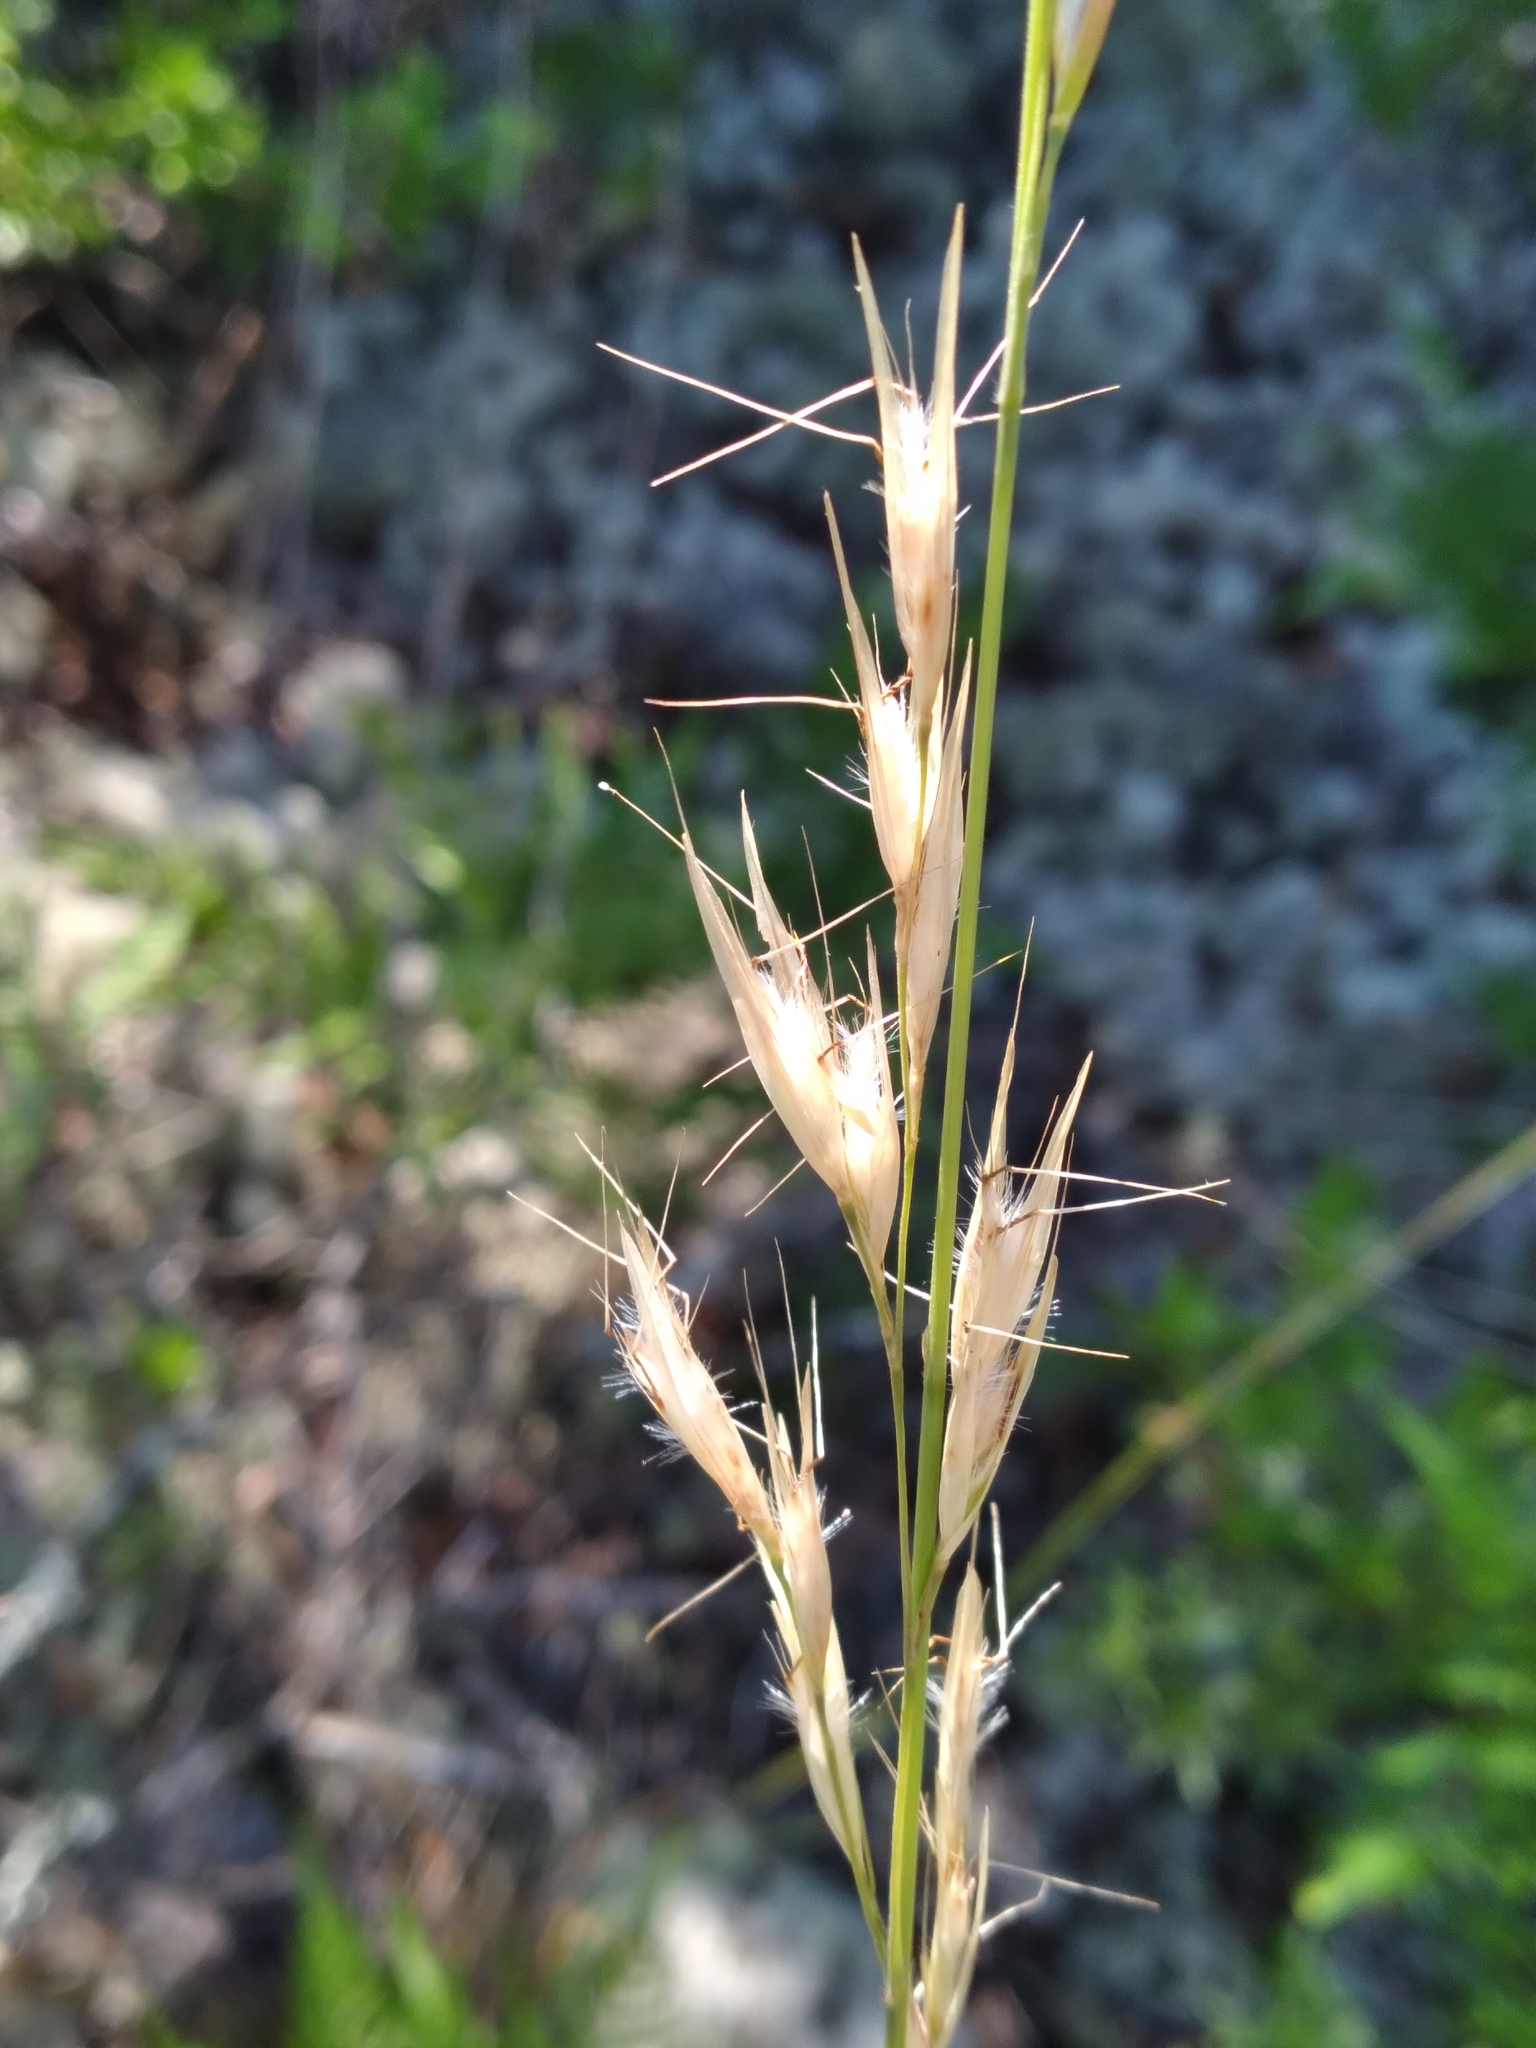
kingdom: Plantae
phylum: Tracheophyta
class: Liliopsida
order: Poales
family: Poaceae
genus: Danthonia
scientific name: Danthonia sericea
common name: Downy danthonia
